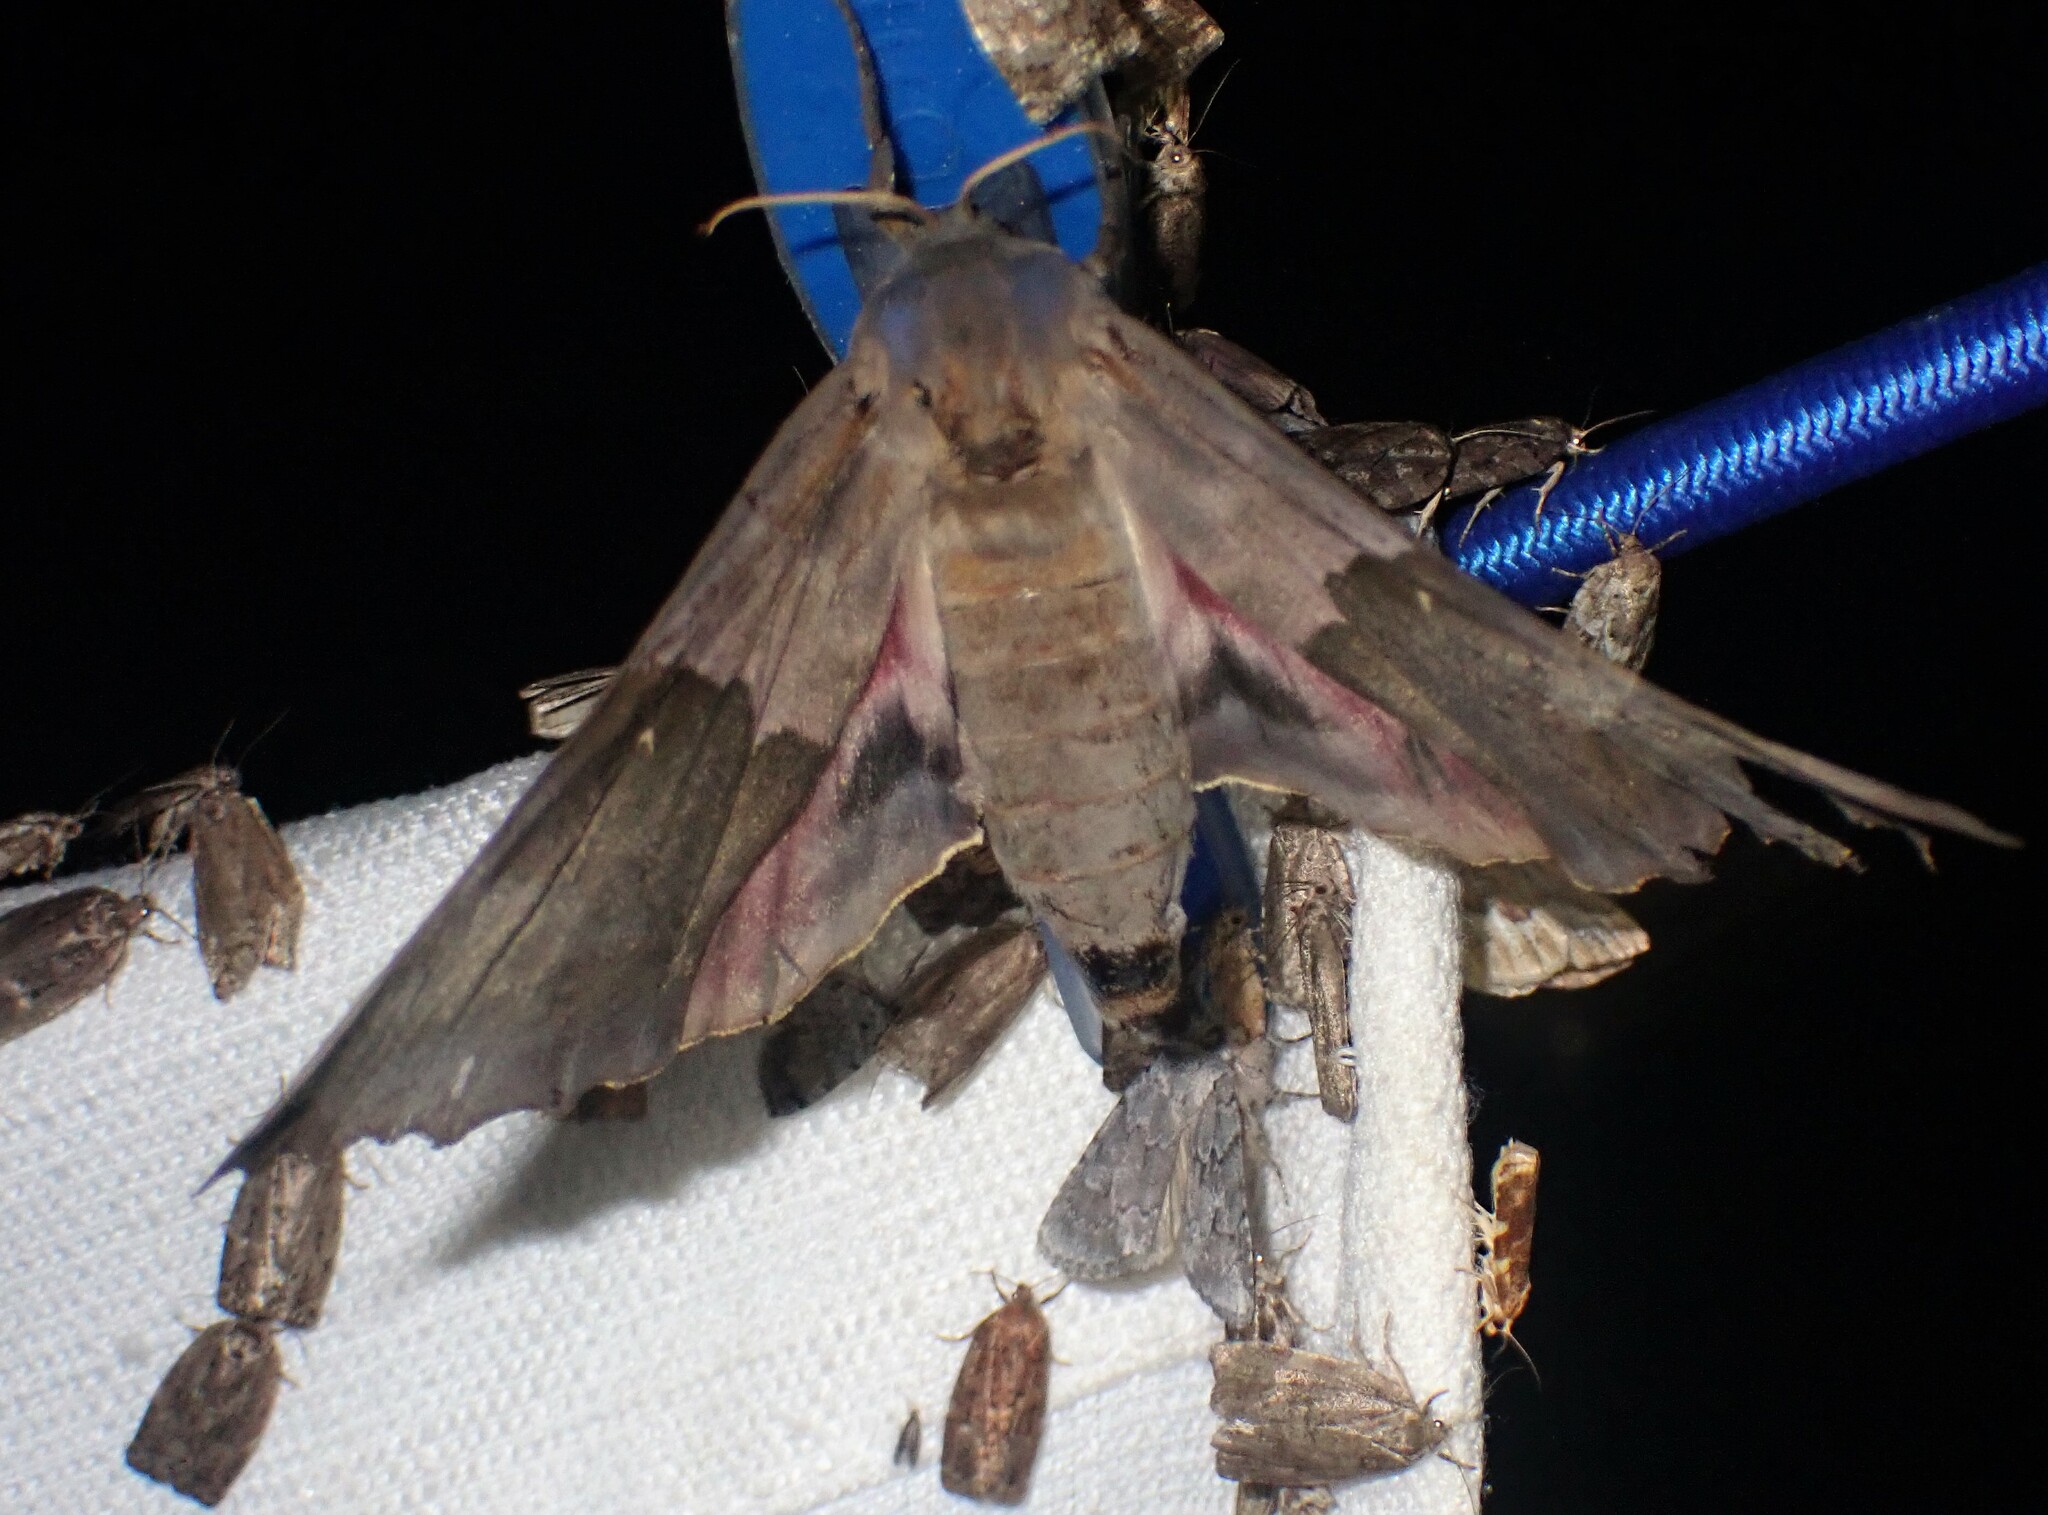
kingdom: Animalia
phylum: Arthropoda
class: Insecta
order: Lepidoptera
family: Sphingidae
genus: Pachysphinx
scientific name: Pachysphinx modesta
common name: Big poplar sphinx
